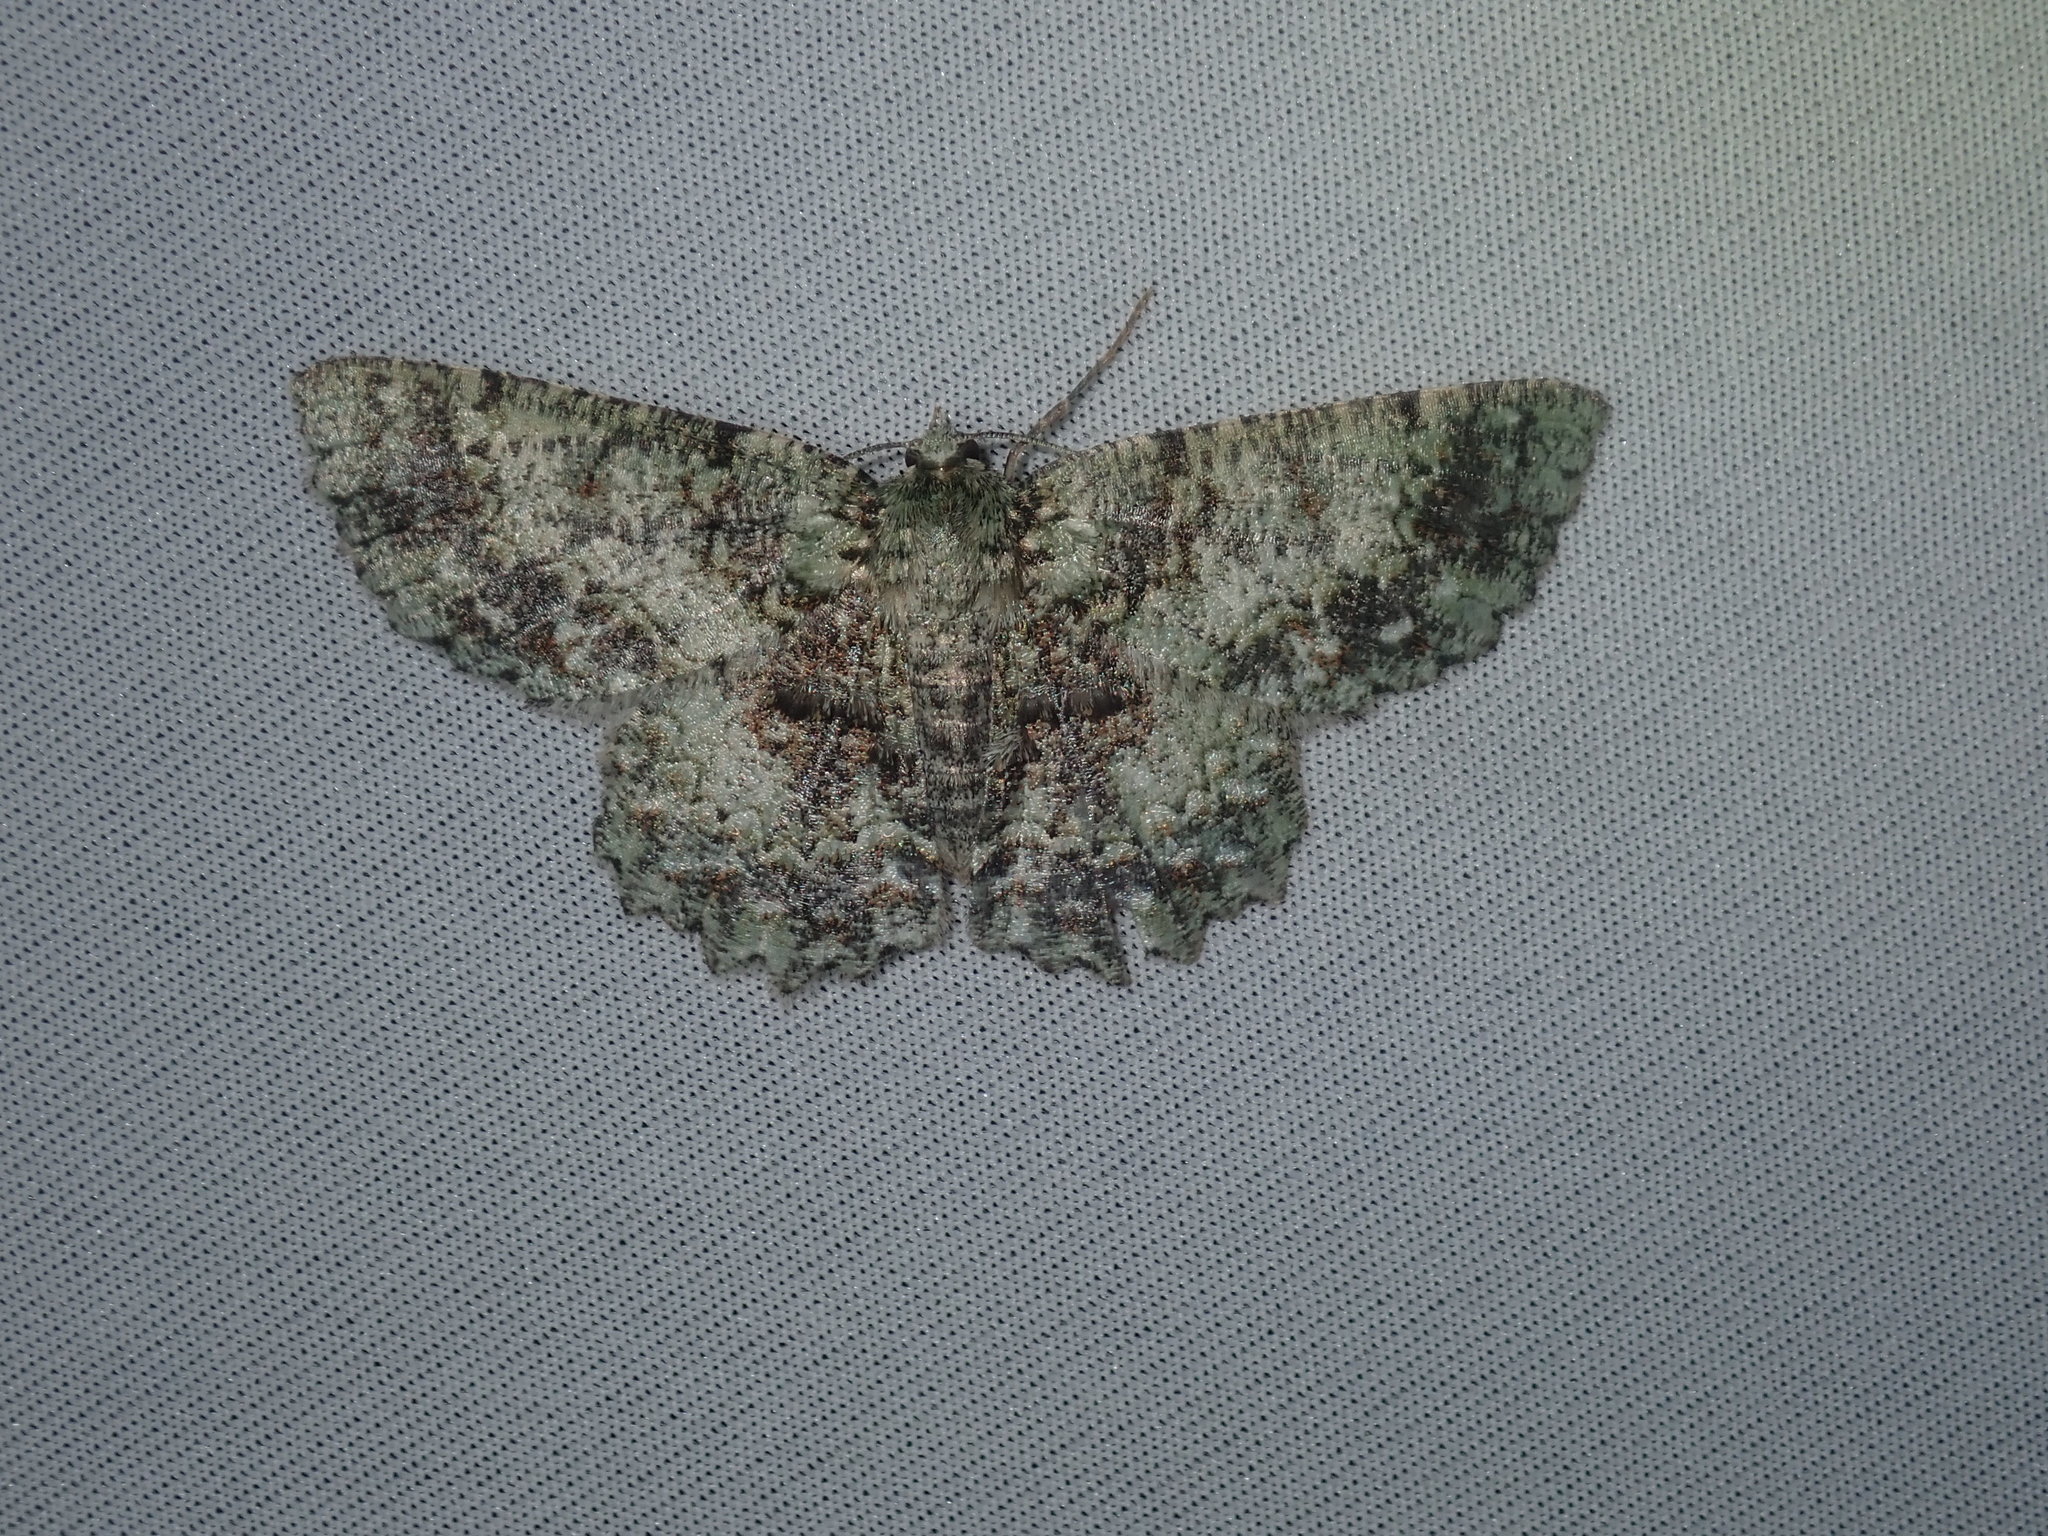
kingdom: Animalia
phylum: Arthropoda
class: Insecta
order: Lepidoptera
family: Geometridae
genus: Hypodoxa
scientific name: Hypodoxa muscosaria
